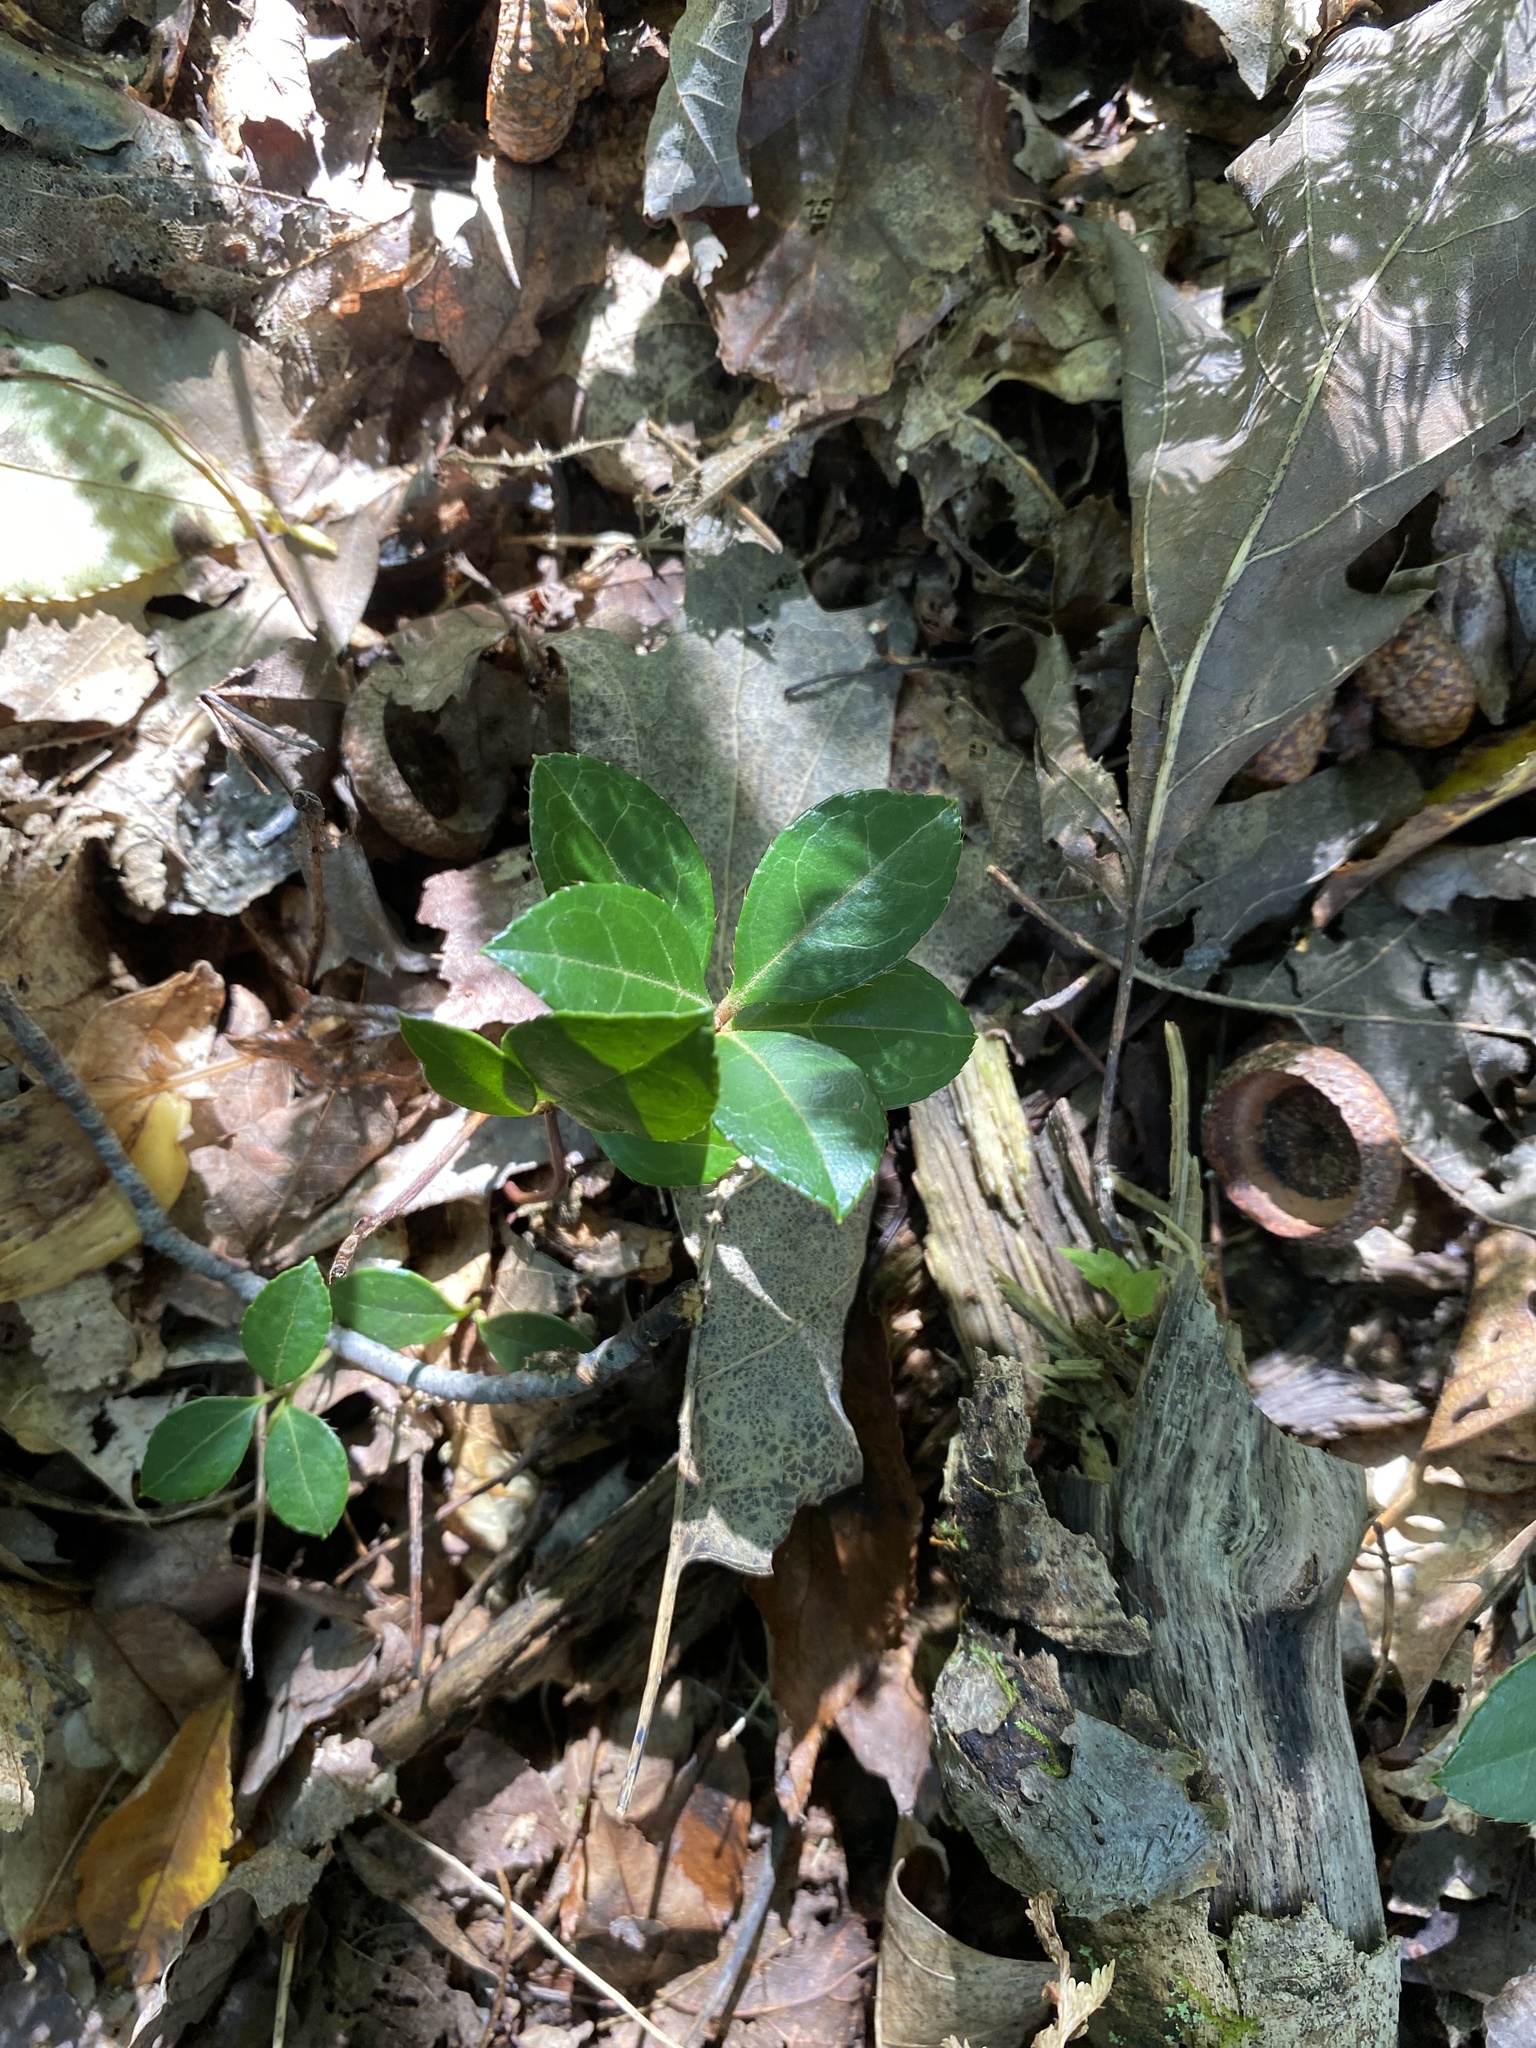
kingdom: Plantae
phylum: Tracheophyta
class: Magnoliopsida
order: Ericales
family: Ericaceae
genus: Gaultheria
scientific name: Gaultheria procumbens
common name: Checkerberry
